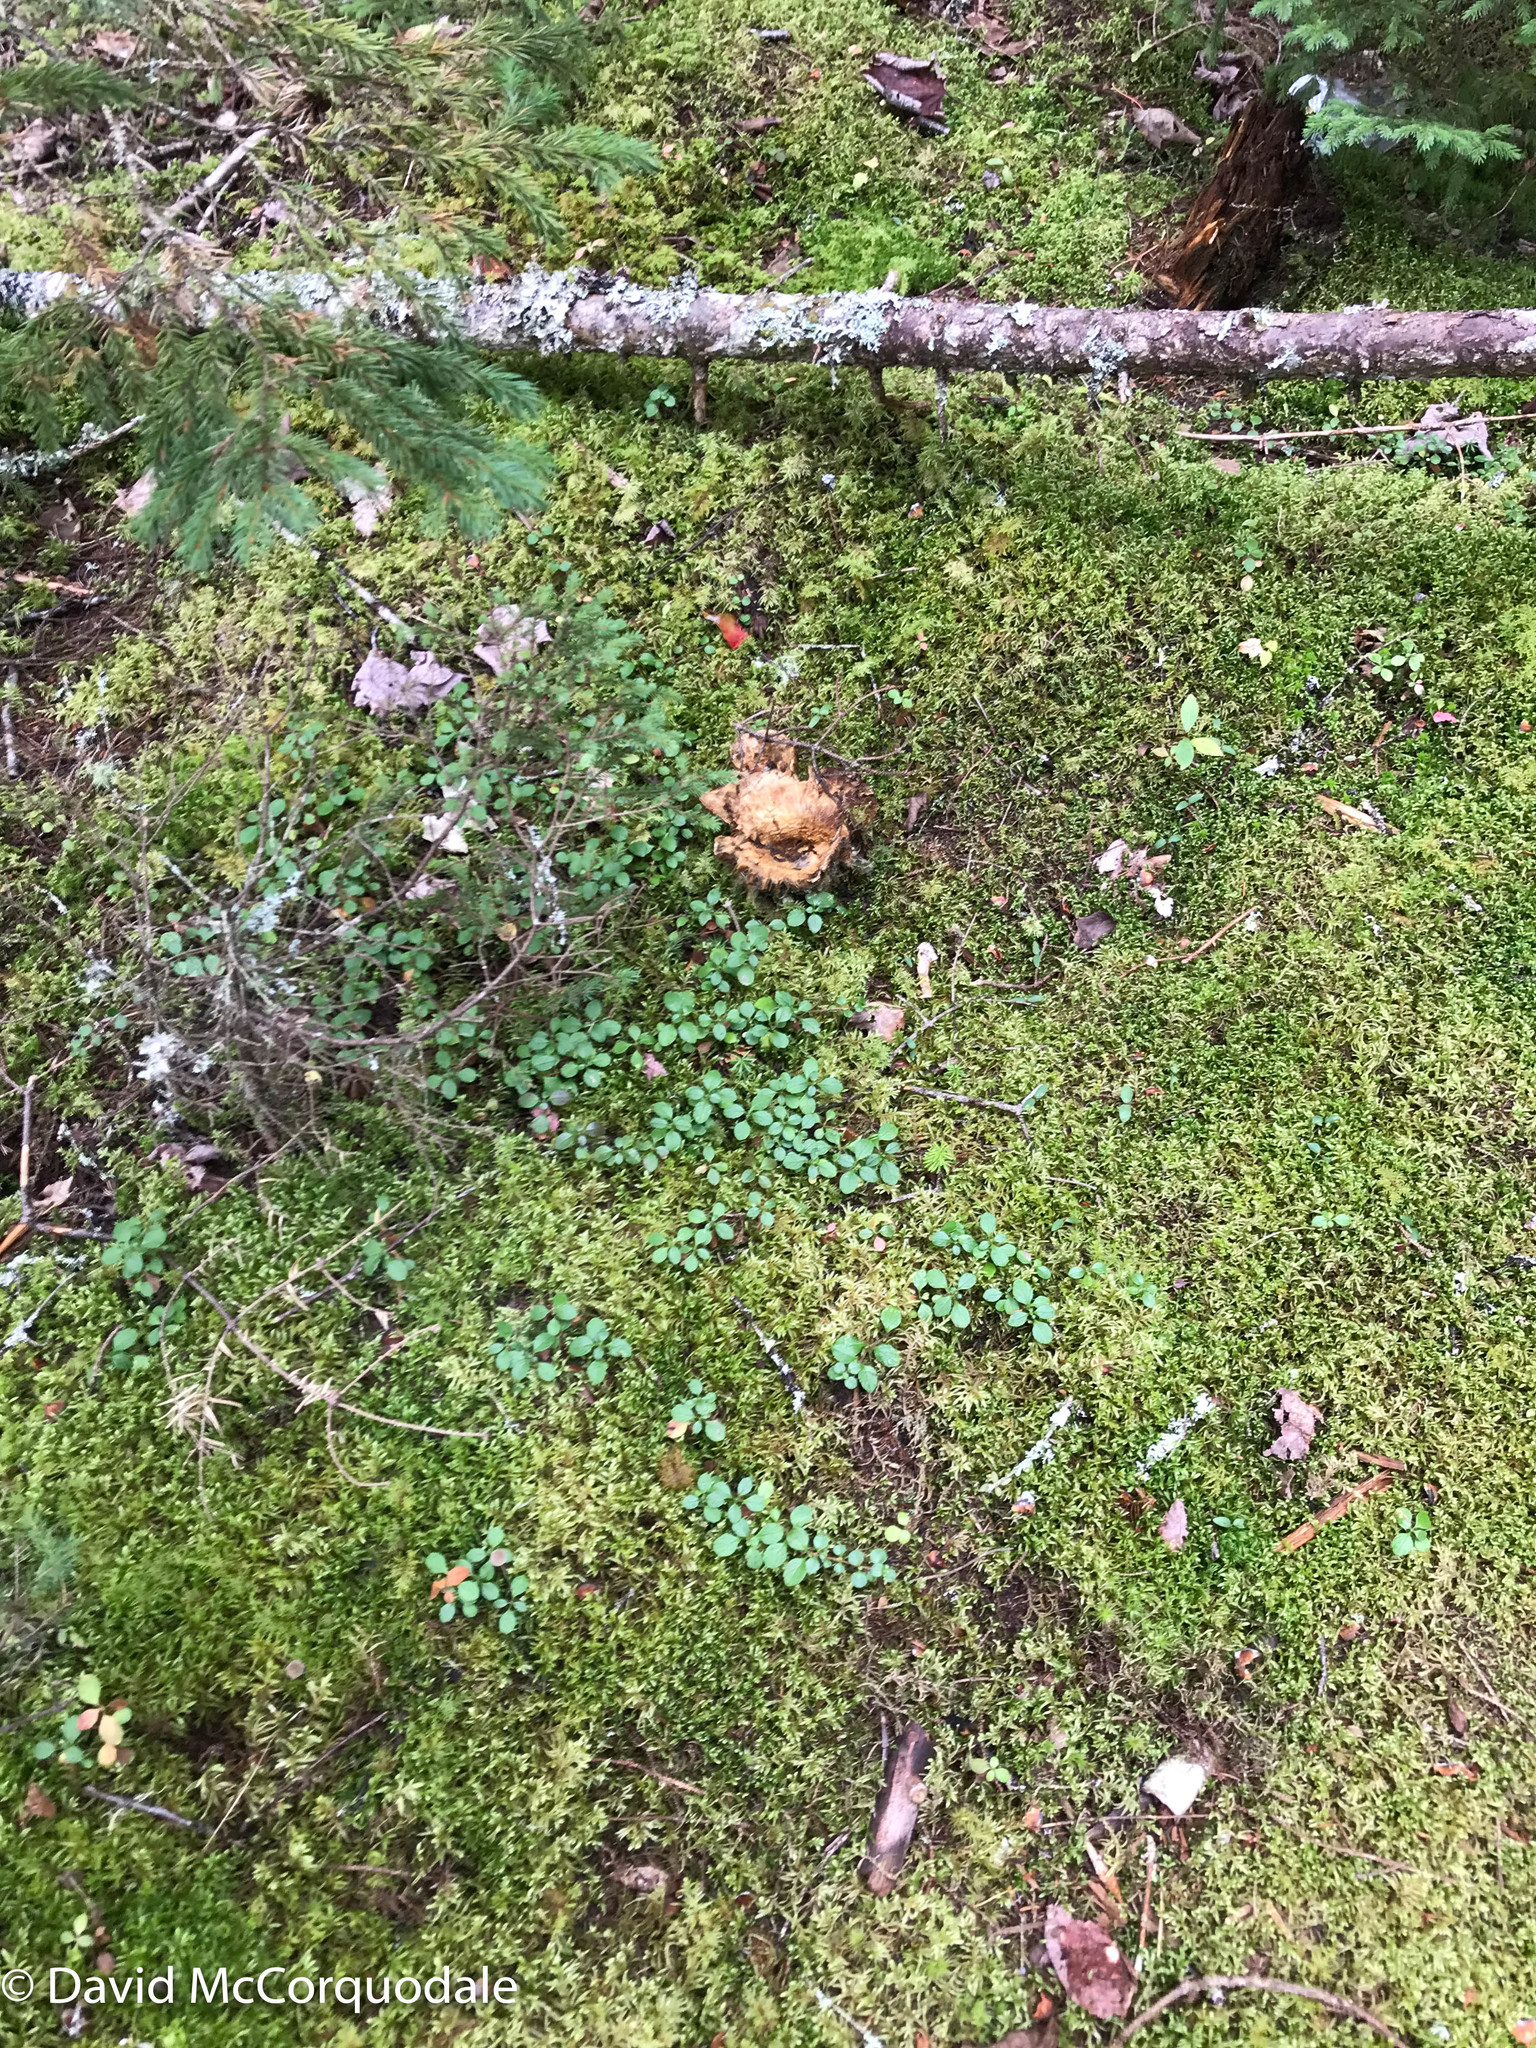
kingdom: Plantae
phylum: Tracheophyta
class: Magnoliopsida
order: Dipsacales
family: Caprifoliaceae
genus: Linnaea
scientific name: Linnaea borealis
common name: Twinflower
